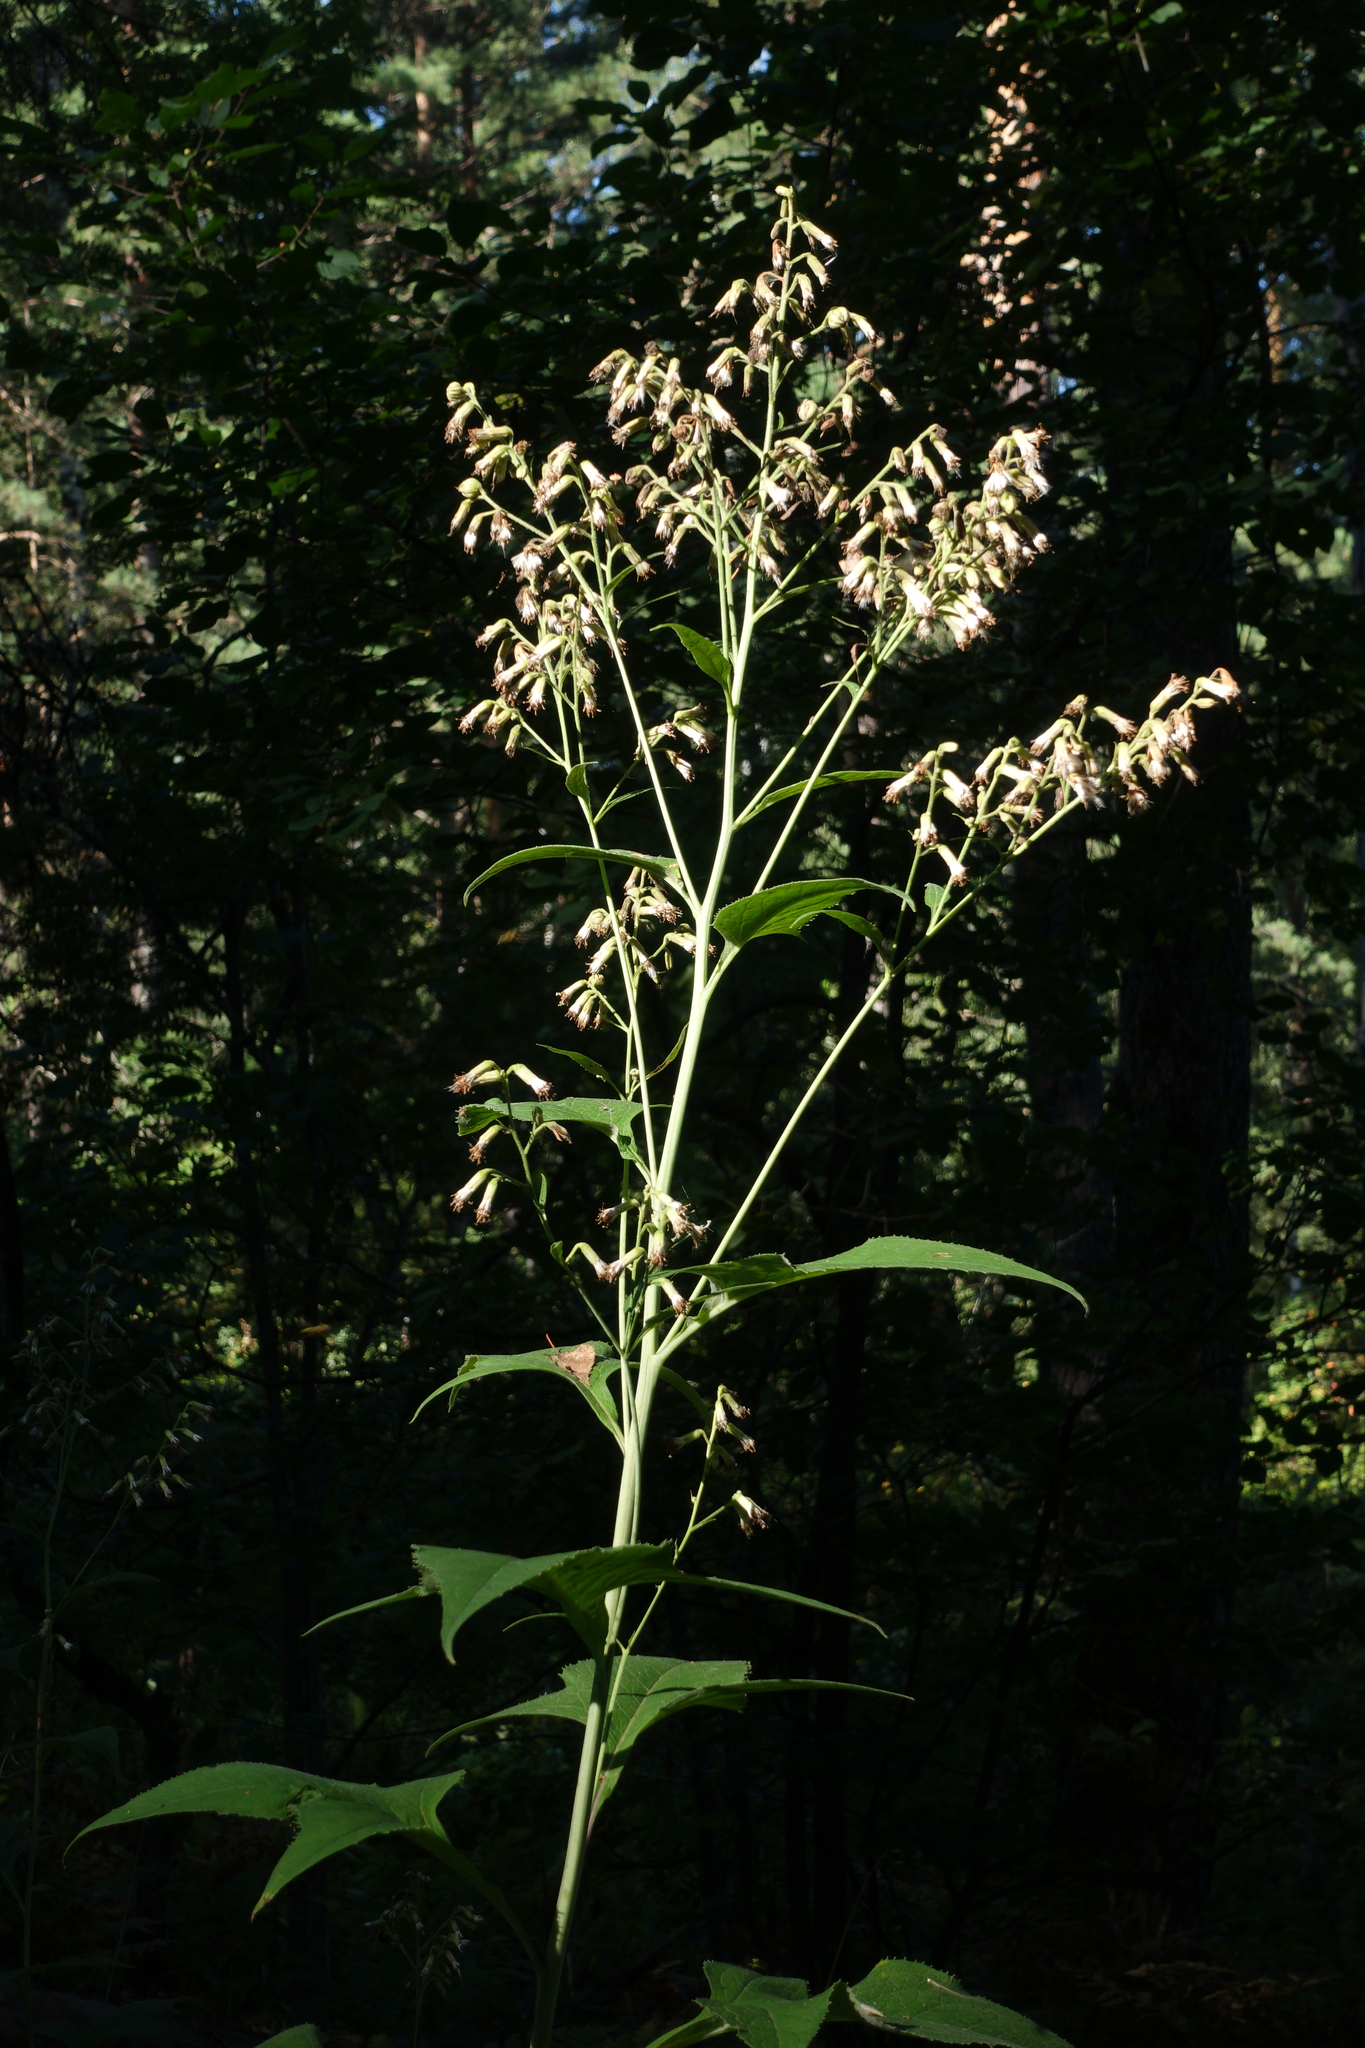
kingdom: Plantae
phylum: Tracheophyta
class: Magnoliopsida
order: Asterales
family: Asteraceae
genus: Parasenecio
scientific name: Parasenecio hastatus
